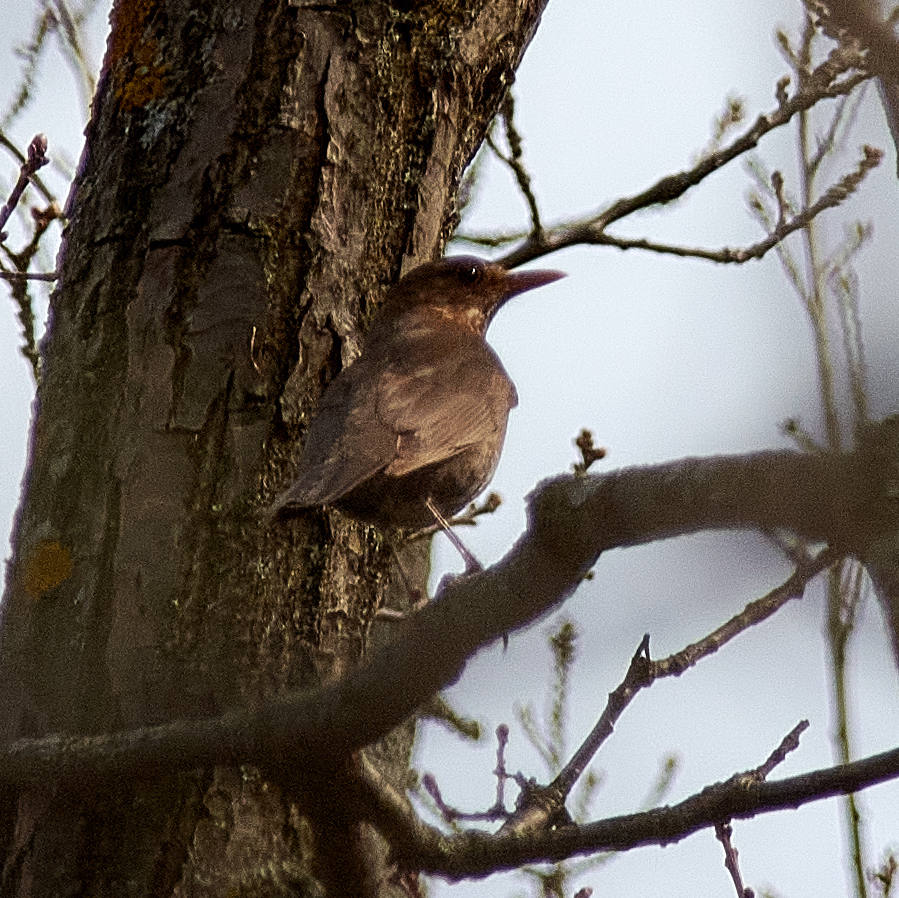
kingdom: Animalia
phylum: Chordata
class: Aves
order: Passeriformes
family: Turdidae
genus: Turdus
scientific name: Turdus merula
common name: Common blackbird
